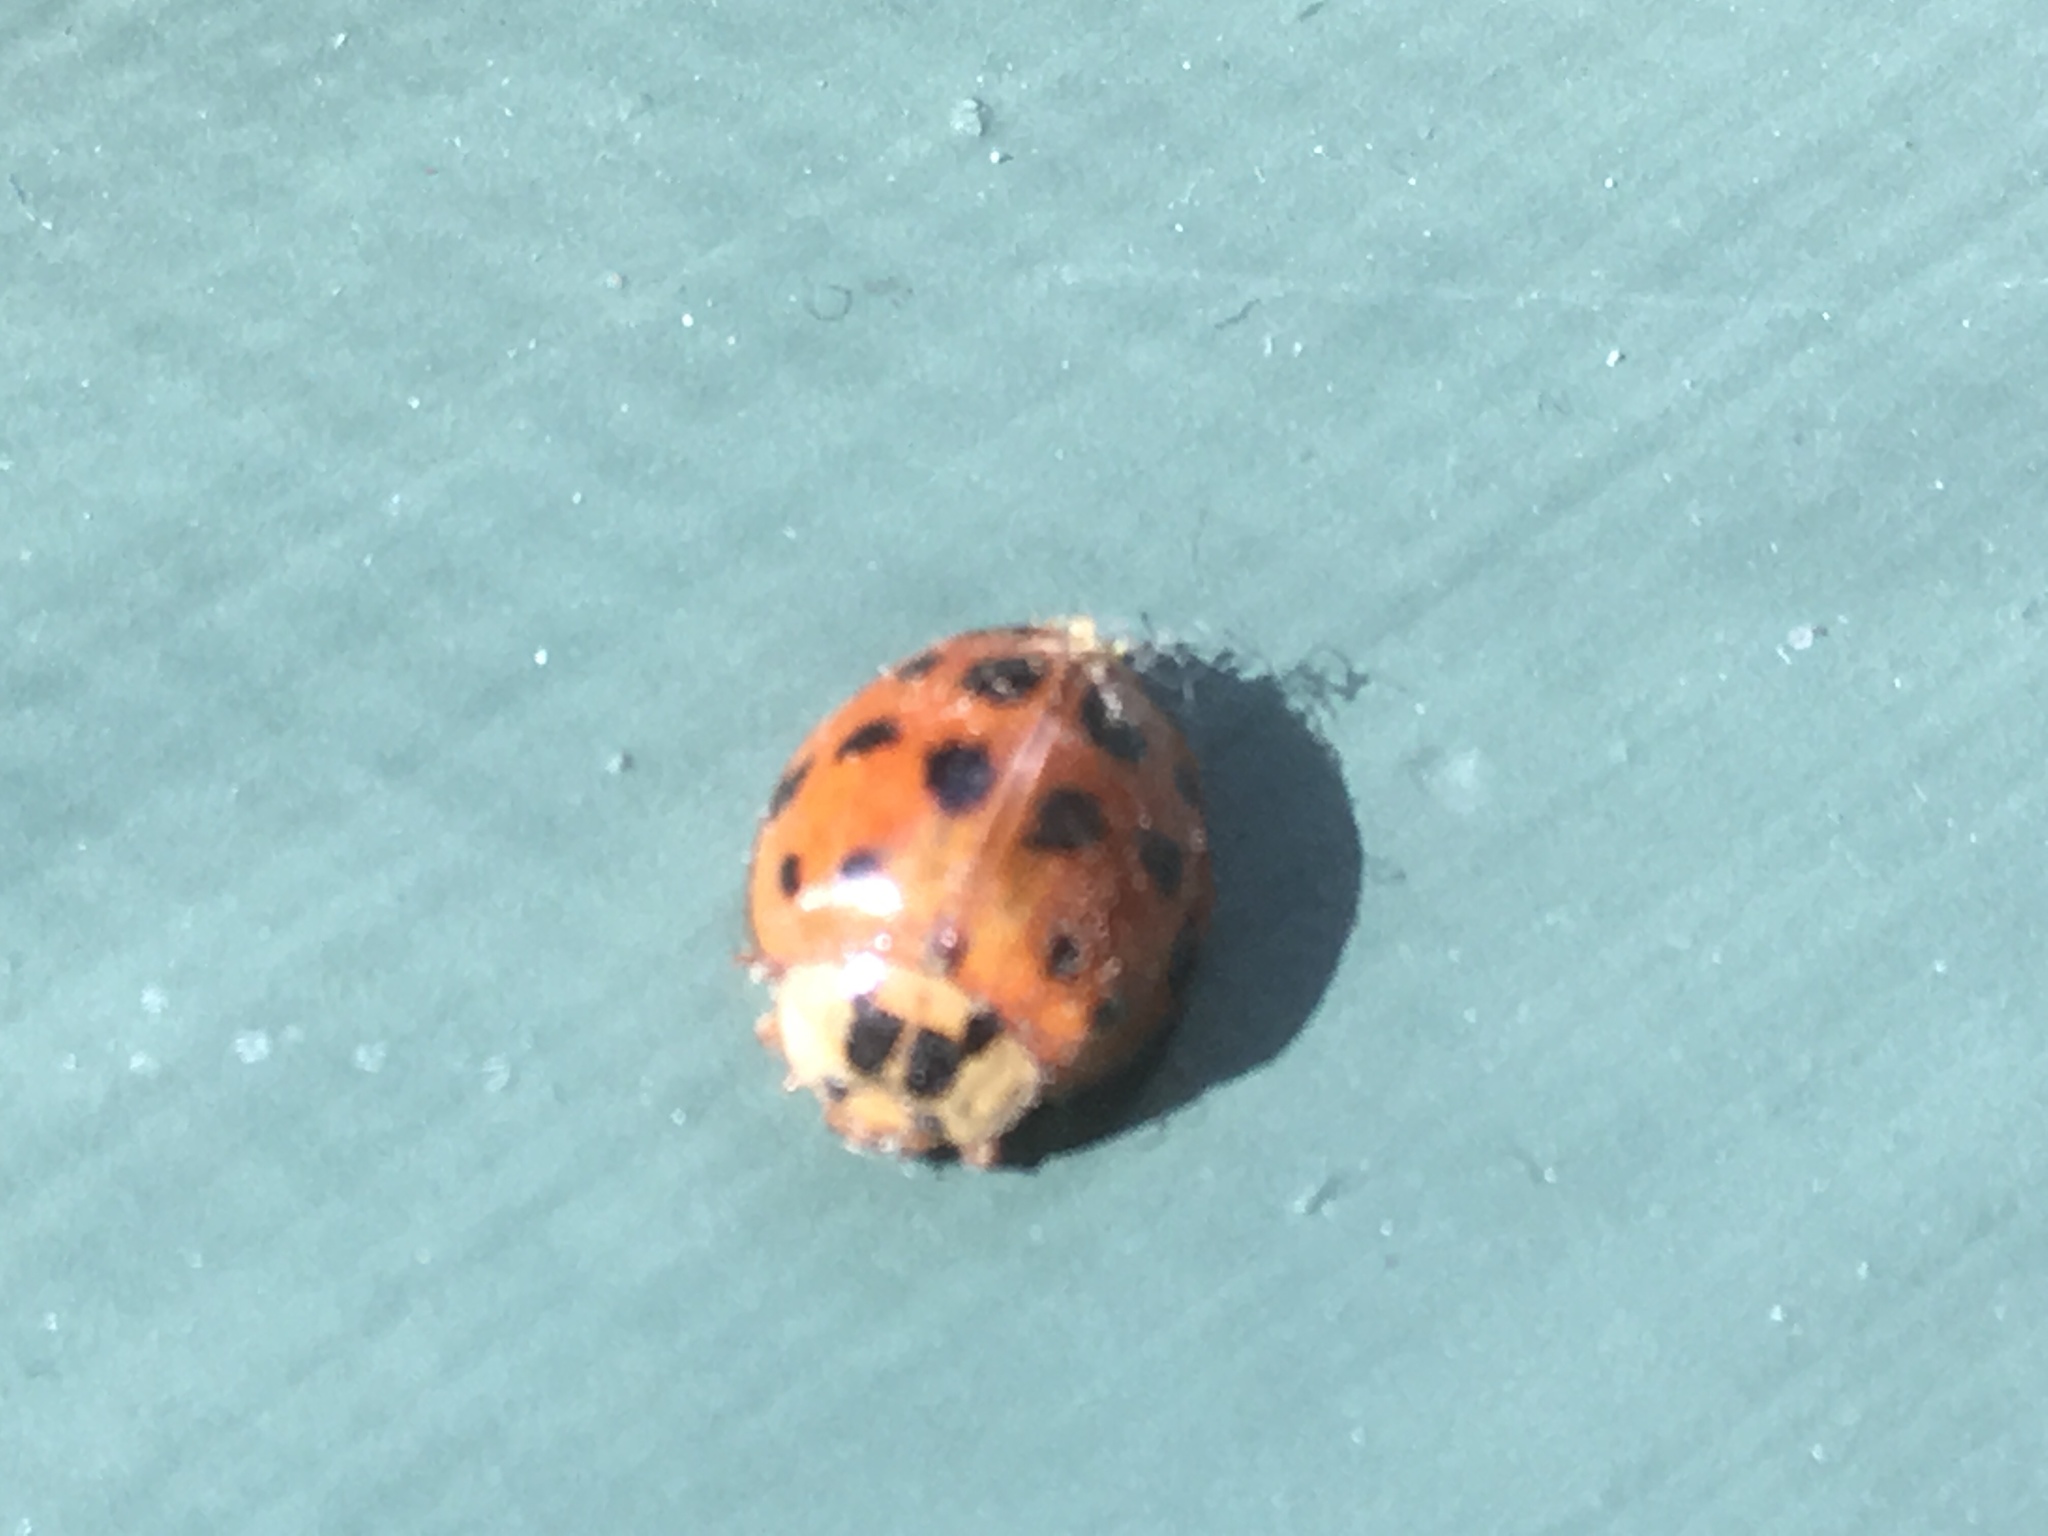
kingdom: Animalia
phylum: Arthropoda
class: Insecta
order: Coleoptera
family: Coccinellidae
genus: Harmonia
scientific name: Harmonia axyridis
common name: Harlequin ladybird
